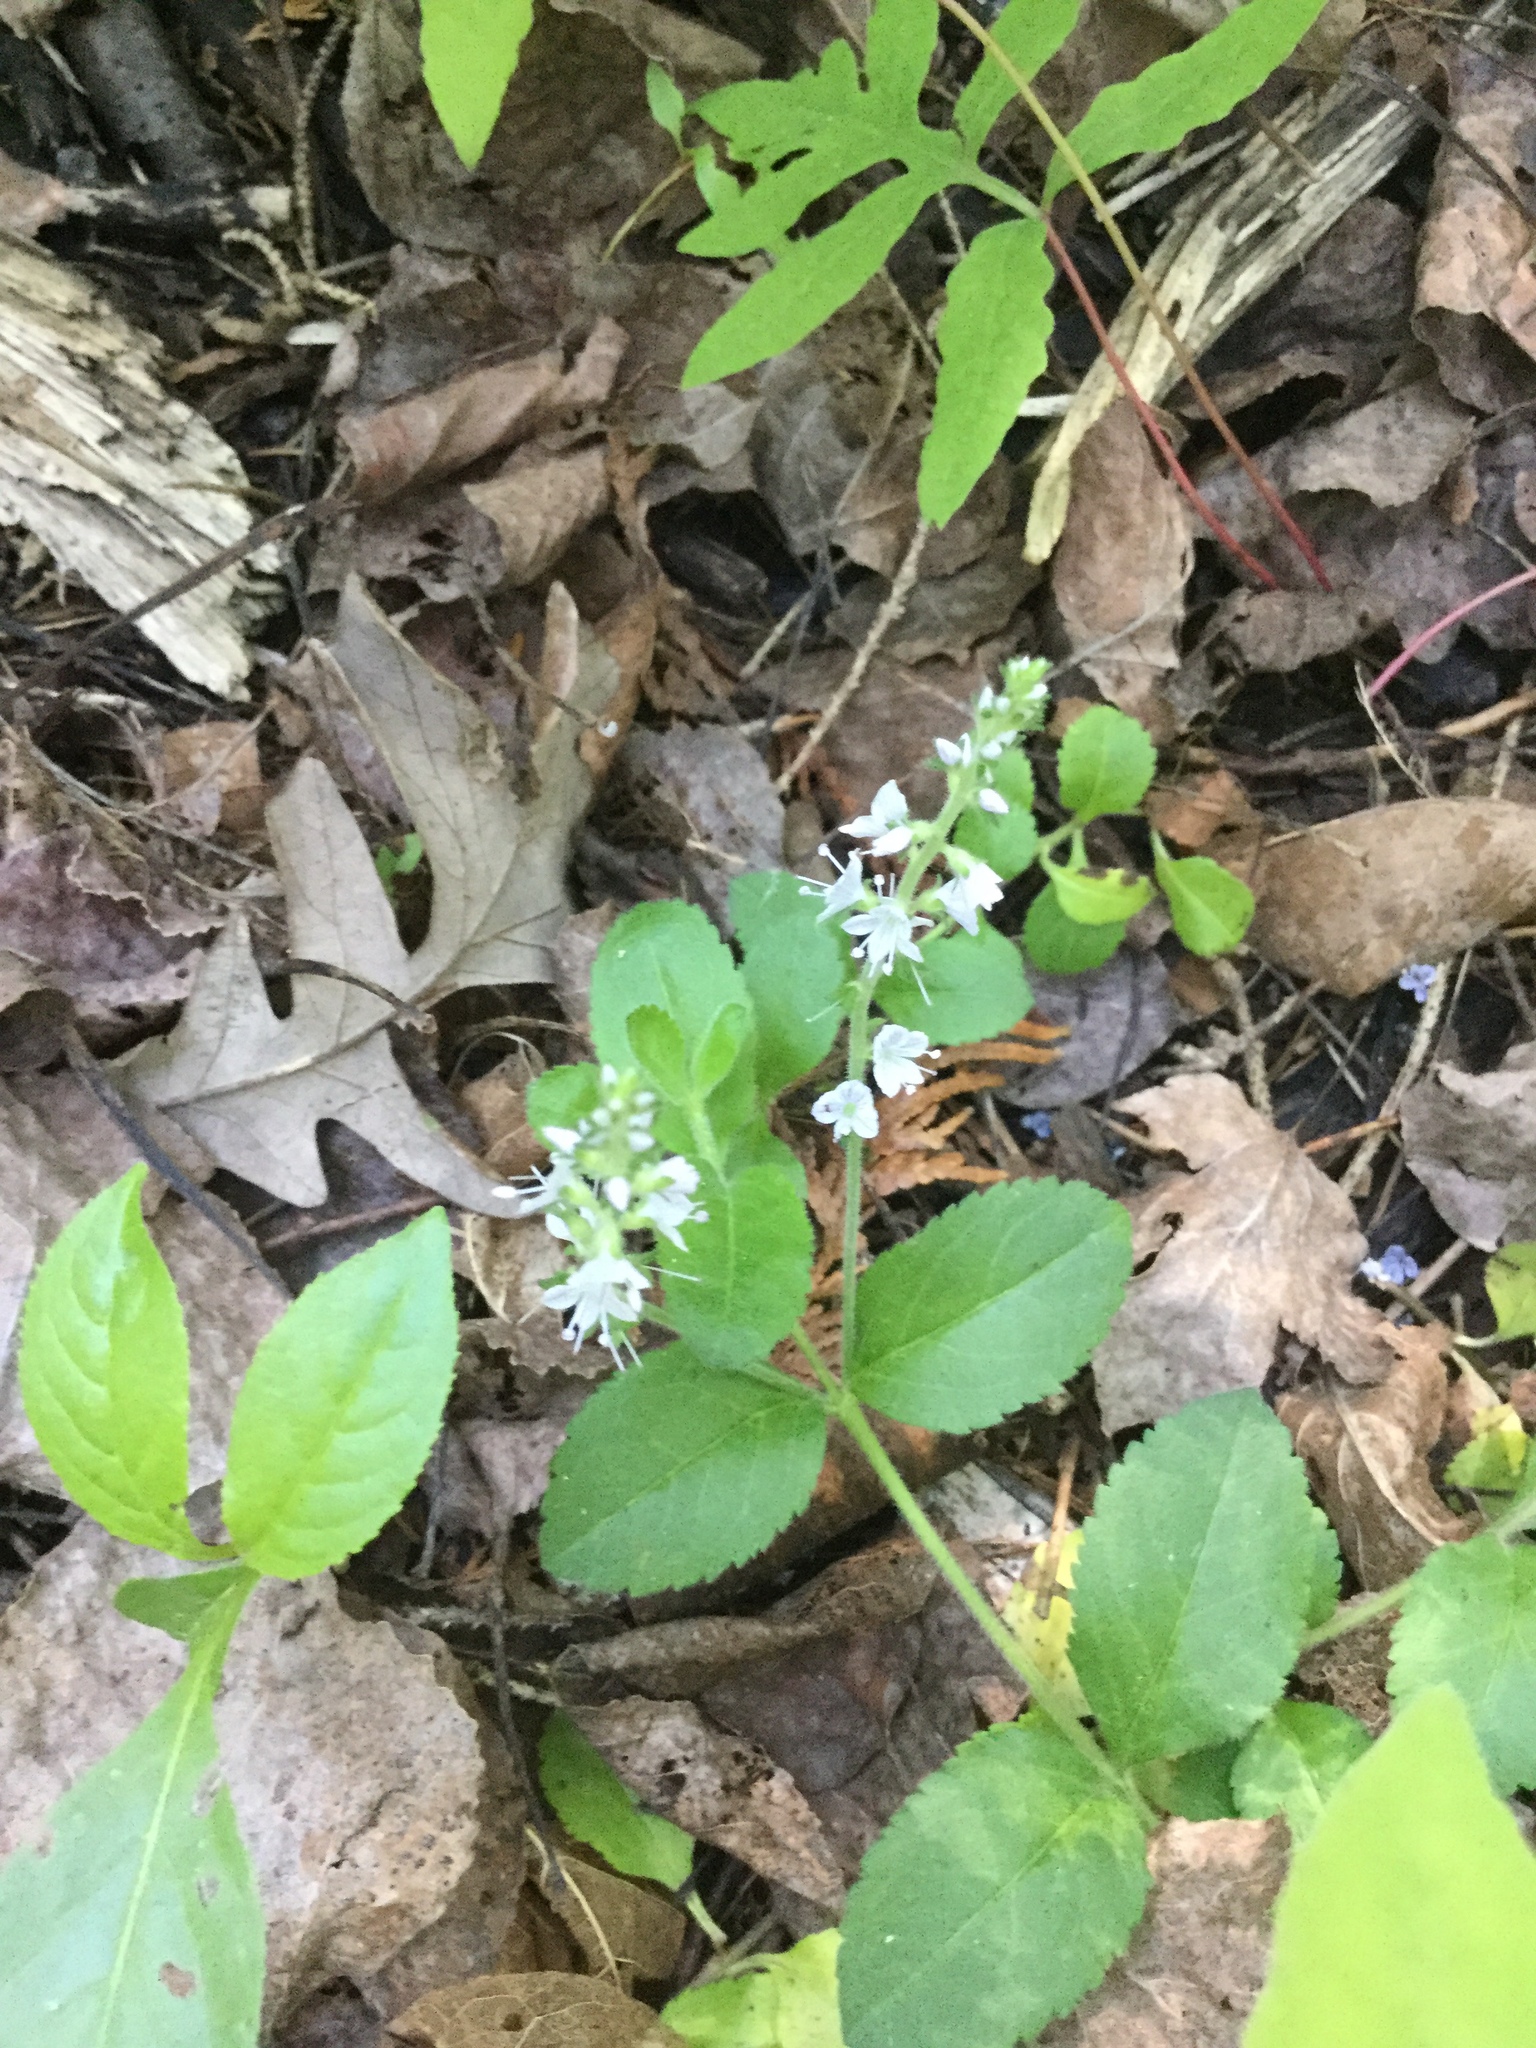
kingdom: Plantae
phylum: Tracheophyta
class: Magnoliopsida
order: Lamiales
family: Plantaginaceae
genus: Veronica
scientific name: Veronica officinalis
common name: Common speedwell
